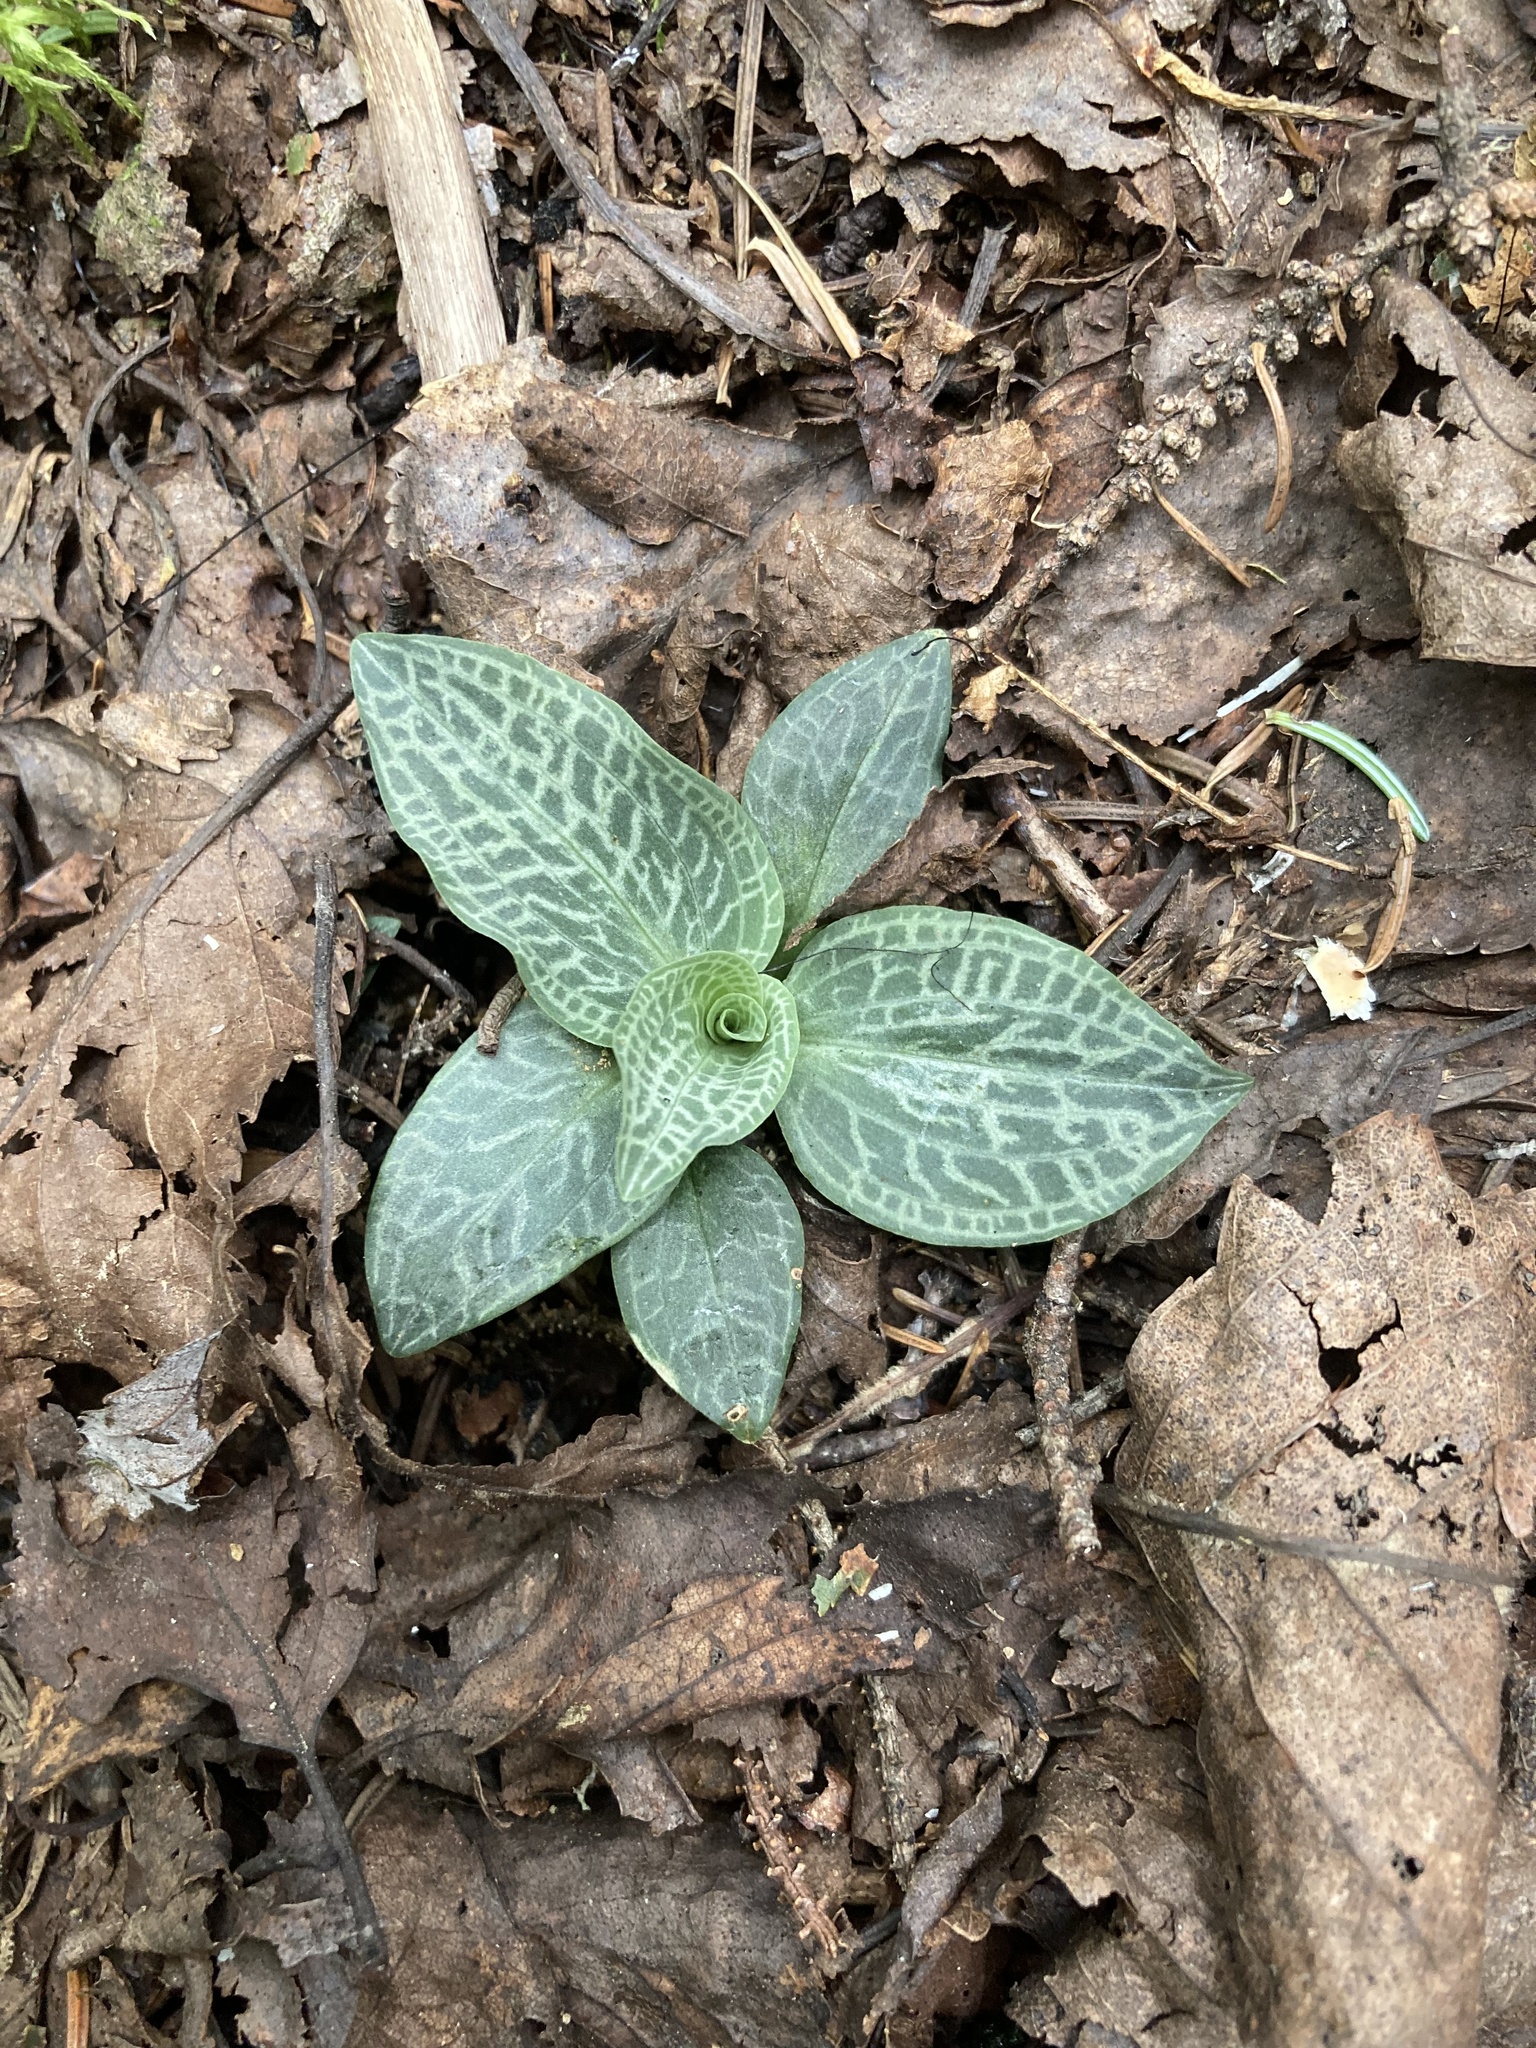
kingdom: Plantae
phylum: Tracheophyta
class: Liliopsida
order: Asparagales
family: Orchidaceae
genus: Goodyera
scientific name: Goodyera tesselata
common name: Checkered rattlesnake-plantain
